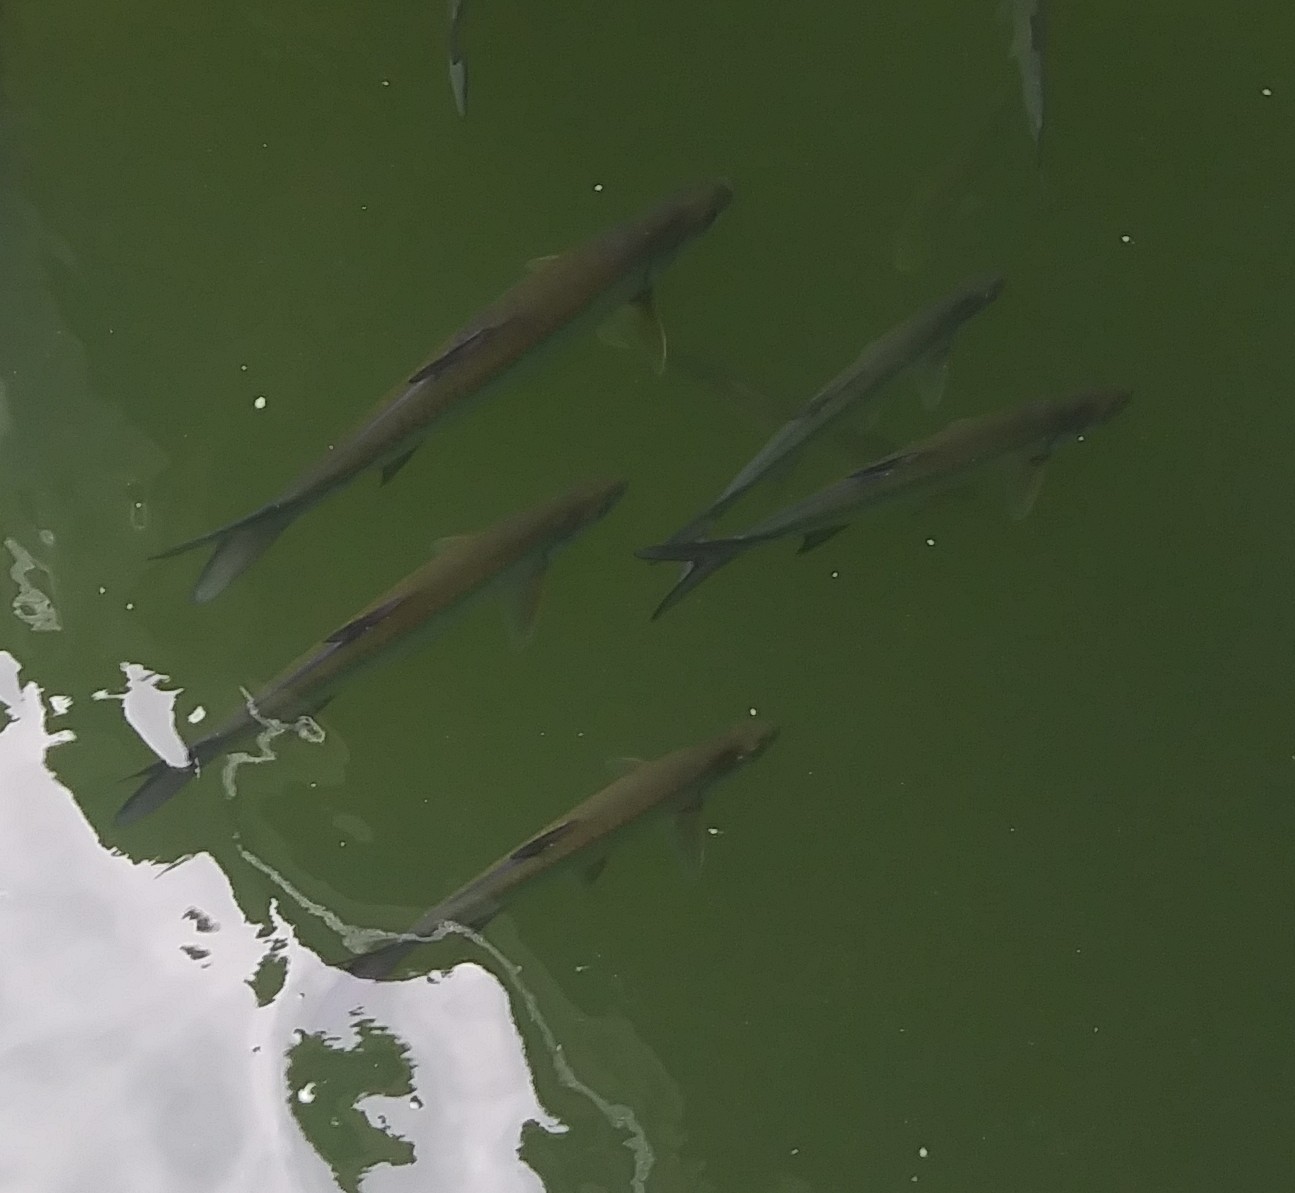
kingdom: Animalia
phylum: Chordata
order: Elopiformes
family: Megalopidae
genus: Megalops
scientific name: Megalops atlanticus
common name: Tarpon
